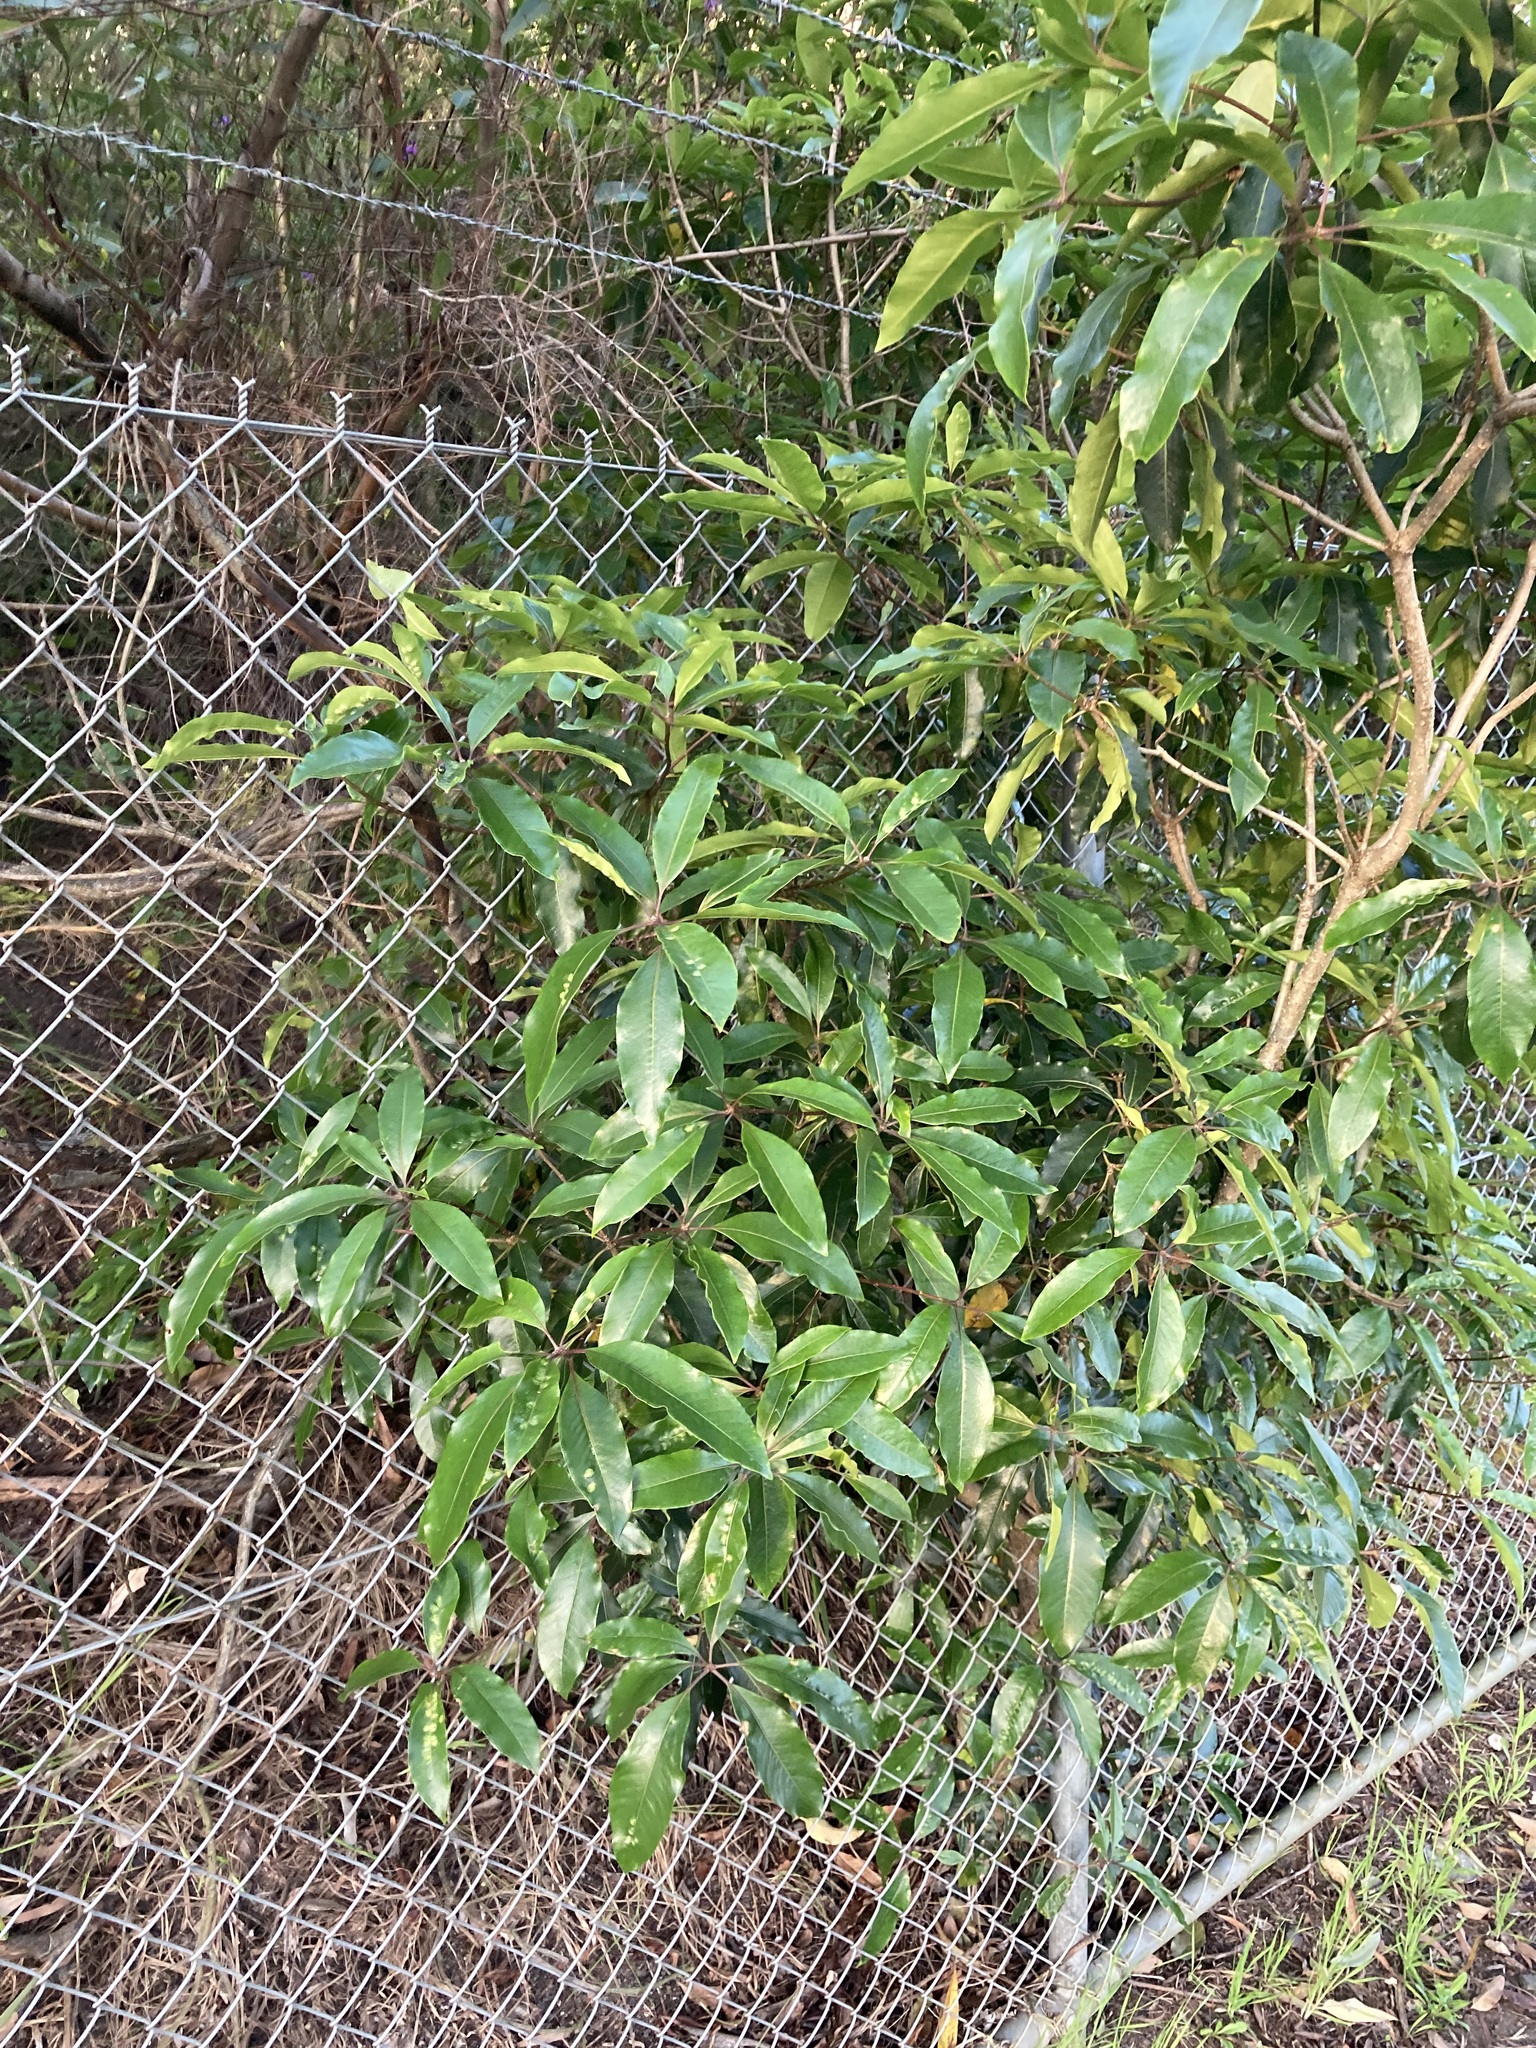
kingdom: Plantae
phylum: Tracheophyta
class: Magnoliopsida
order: Apiales
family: Pittosporaceae
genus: Pittosporum
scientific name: Pittosporum undulatum
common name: Australian cheesewood
